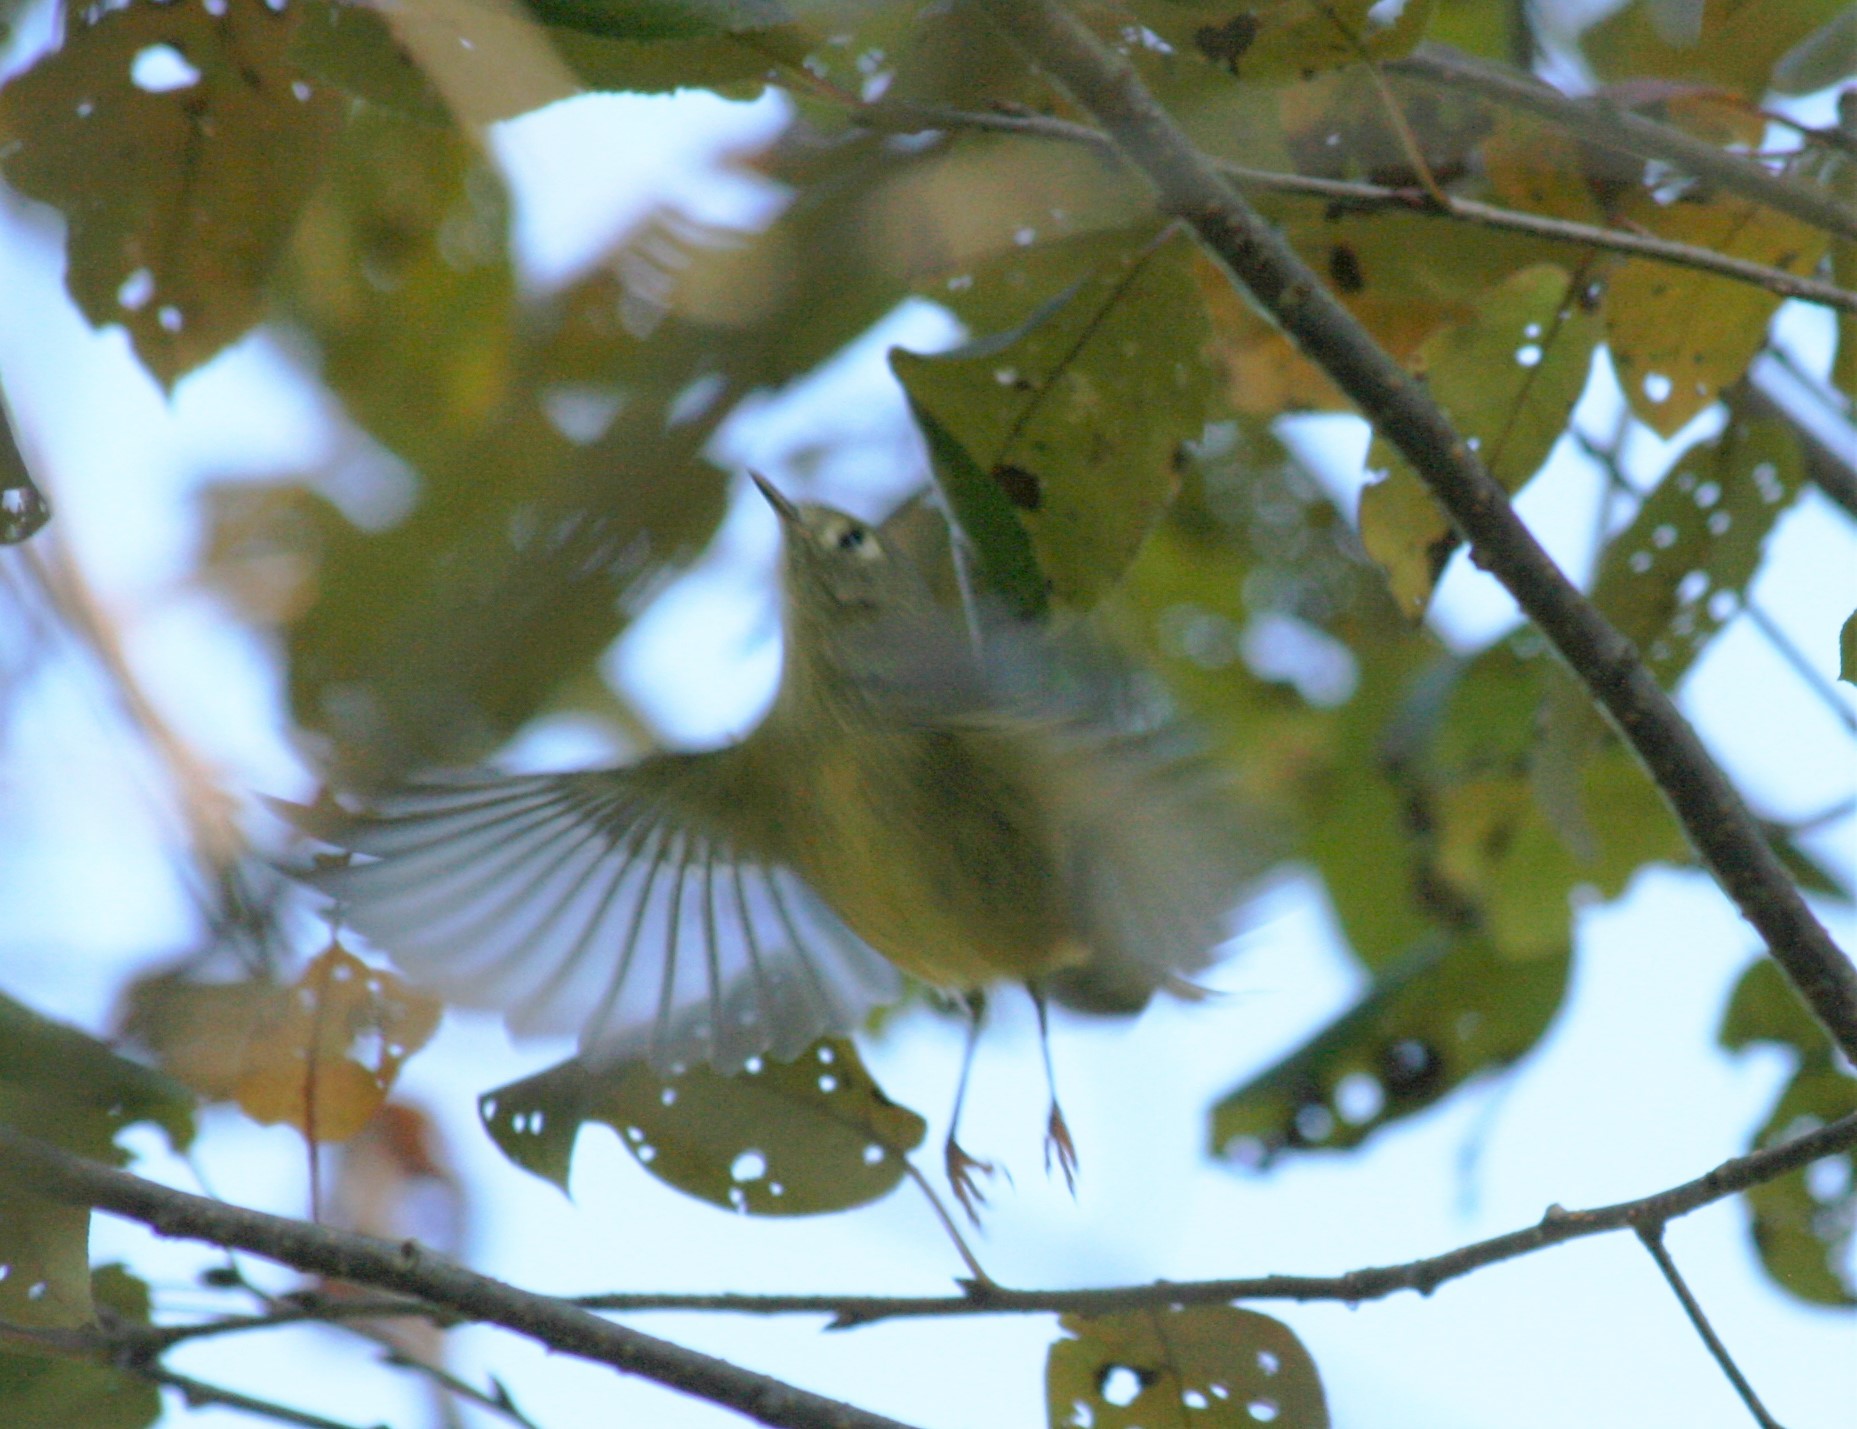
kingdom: Animalia
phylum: Chordata
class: Aves
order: Passeriformes
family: Regulidae
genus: Regulus
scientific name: Regulus calendula
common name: Ruby-crowned kinglet
